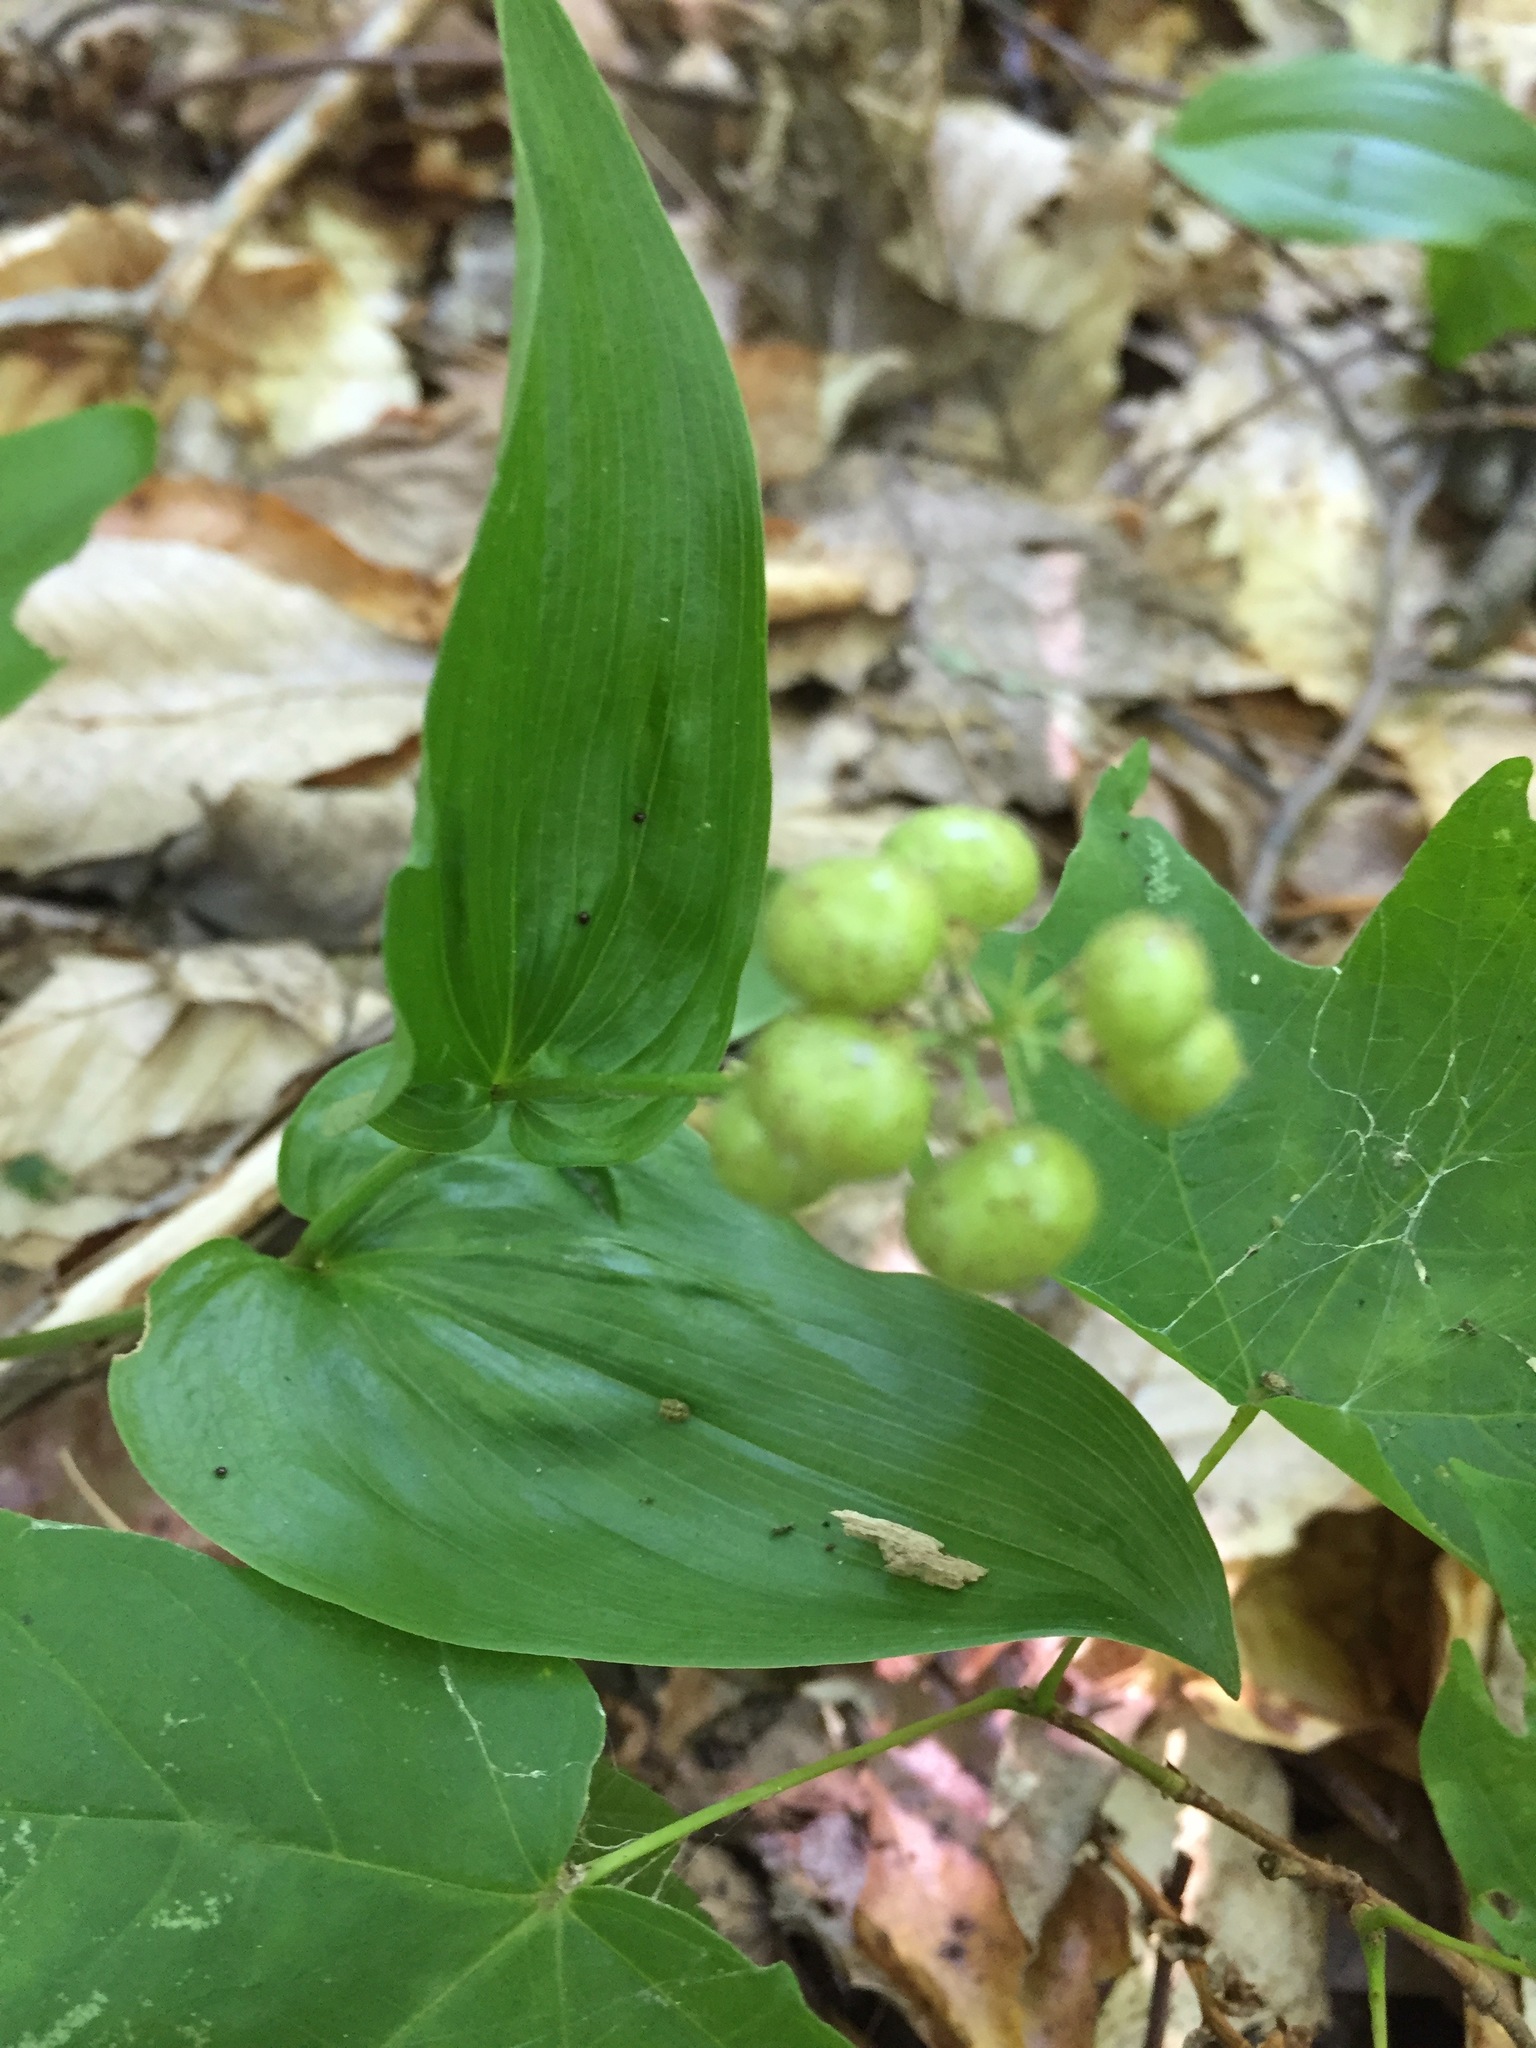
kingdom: Plantae
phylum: Tracheophyta
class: Liliopsida
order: Asparagales
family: Asparagaceae
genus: Maianthemum
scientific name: Maianthemum canadense
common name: False lily-of-the-valley
